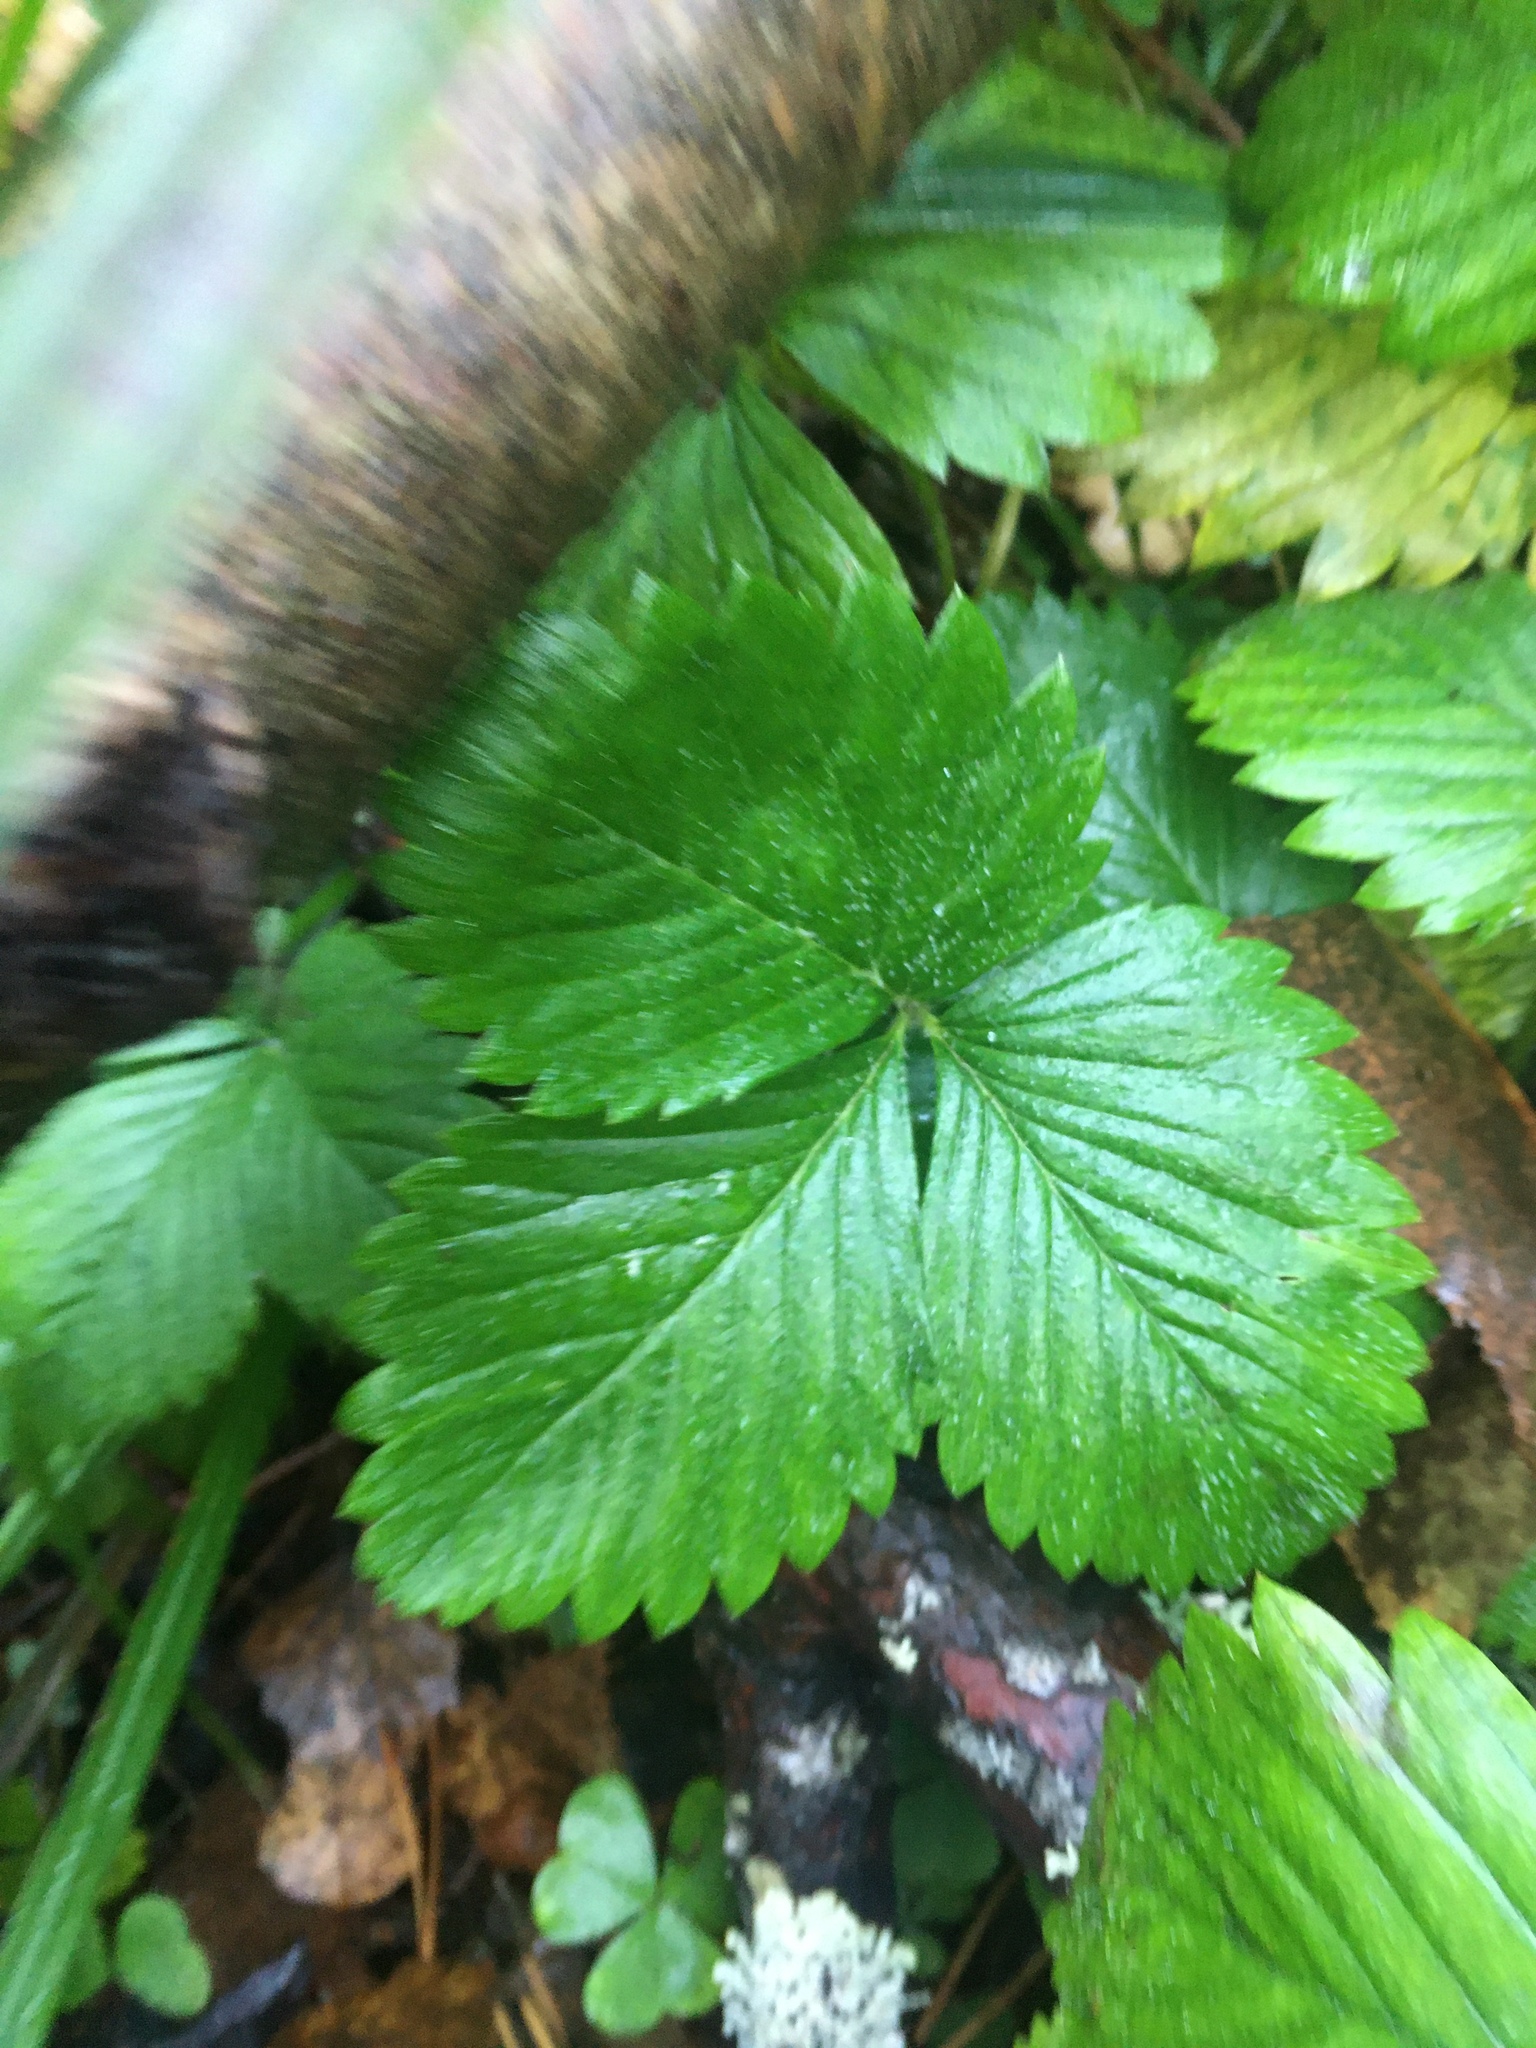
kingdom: Plantae
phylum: Tracheophyta
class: Magnoliopsida
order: Rosales
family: Rosaceae
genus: Fragaria
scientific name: Fragaria vesca
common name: Wild strawberry
